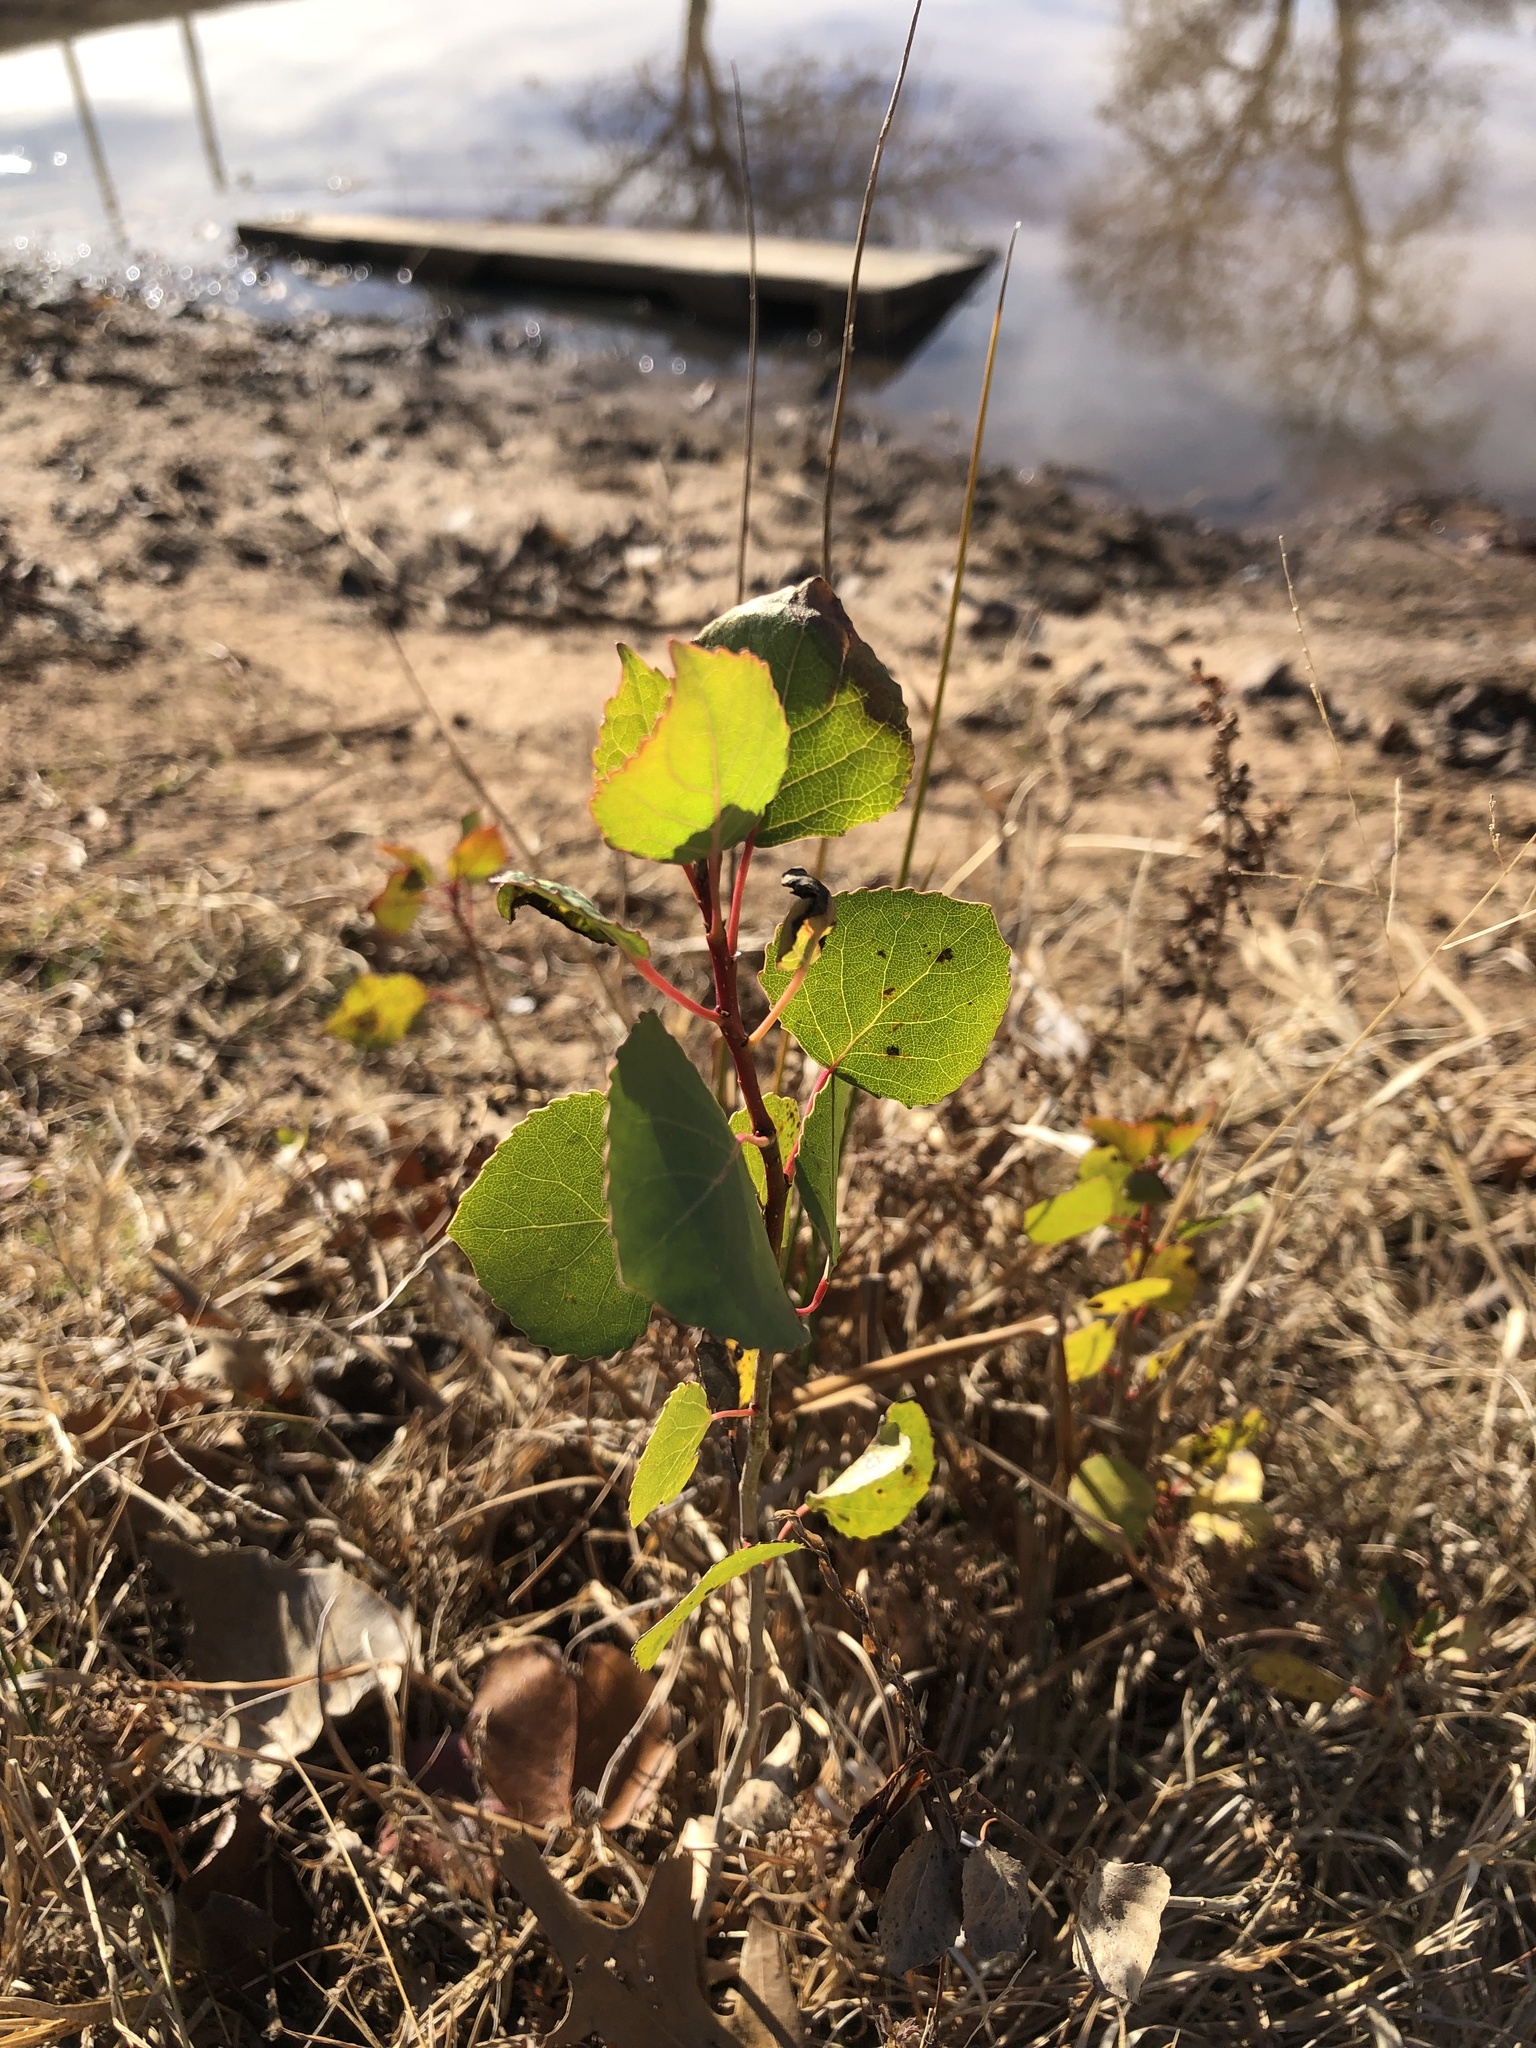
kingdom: Plantae
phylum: Tracheophyta
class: Magnoliopsida
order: Malpighiales
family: Salicaceae
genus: Populus
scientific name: Populus deltoides
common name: Eastern cottonwood
